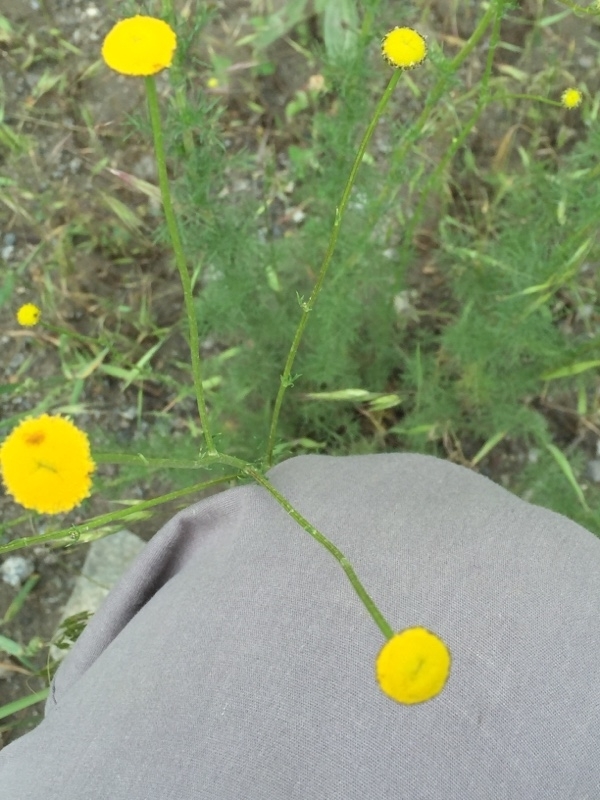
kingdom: Plantae
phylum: Tracheophyta
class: Magnoliopsida
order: Asterales
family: Asteraceae
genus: Cota
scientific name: Cota tinctoria
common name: Golden chamomile
